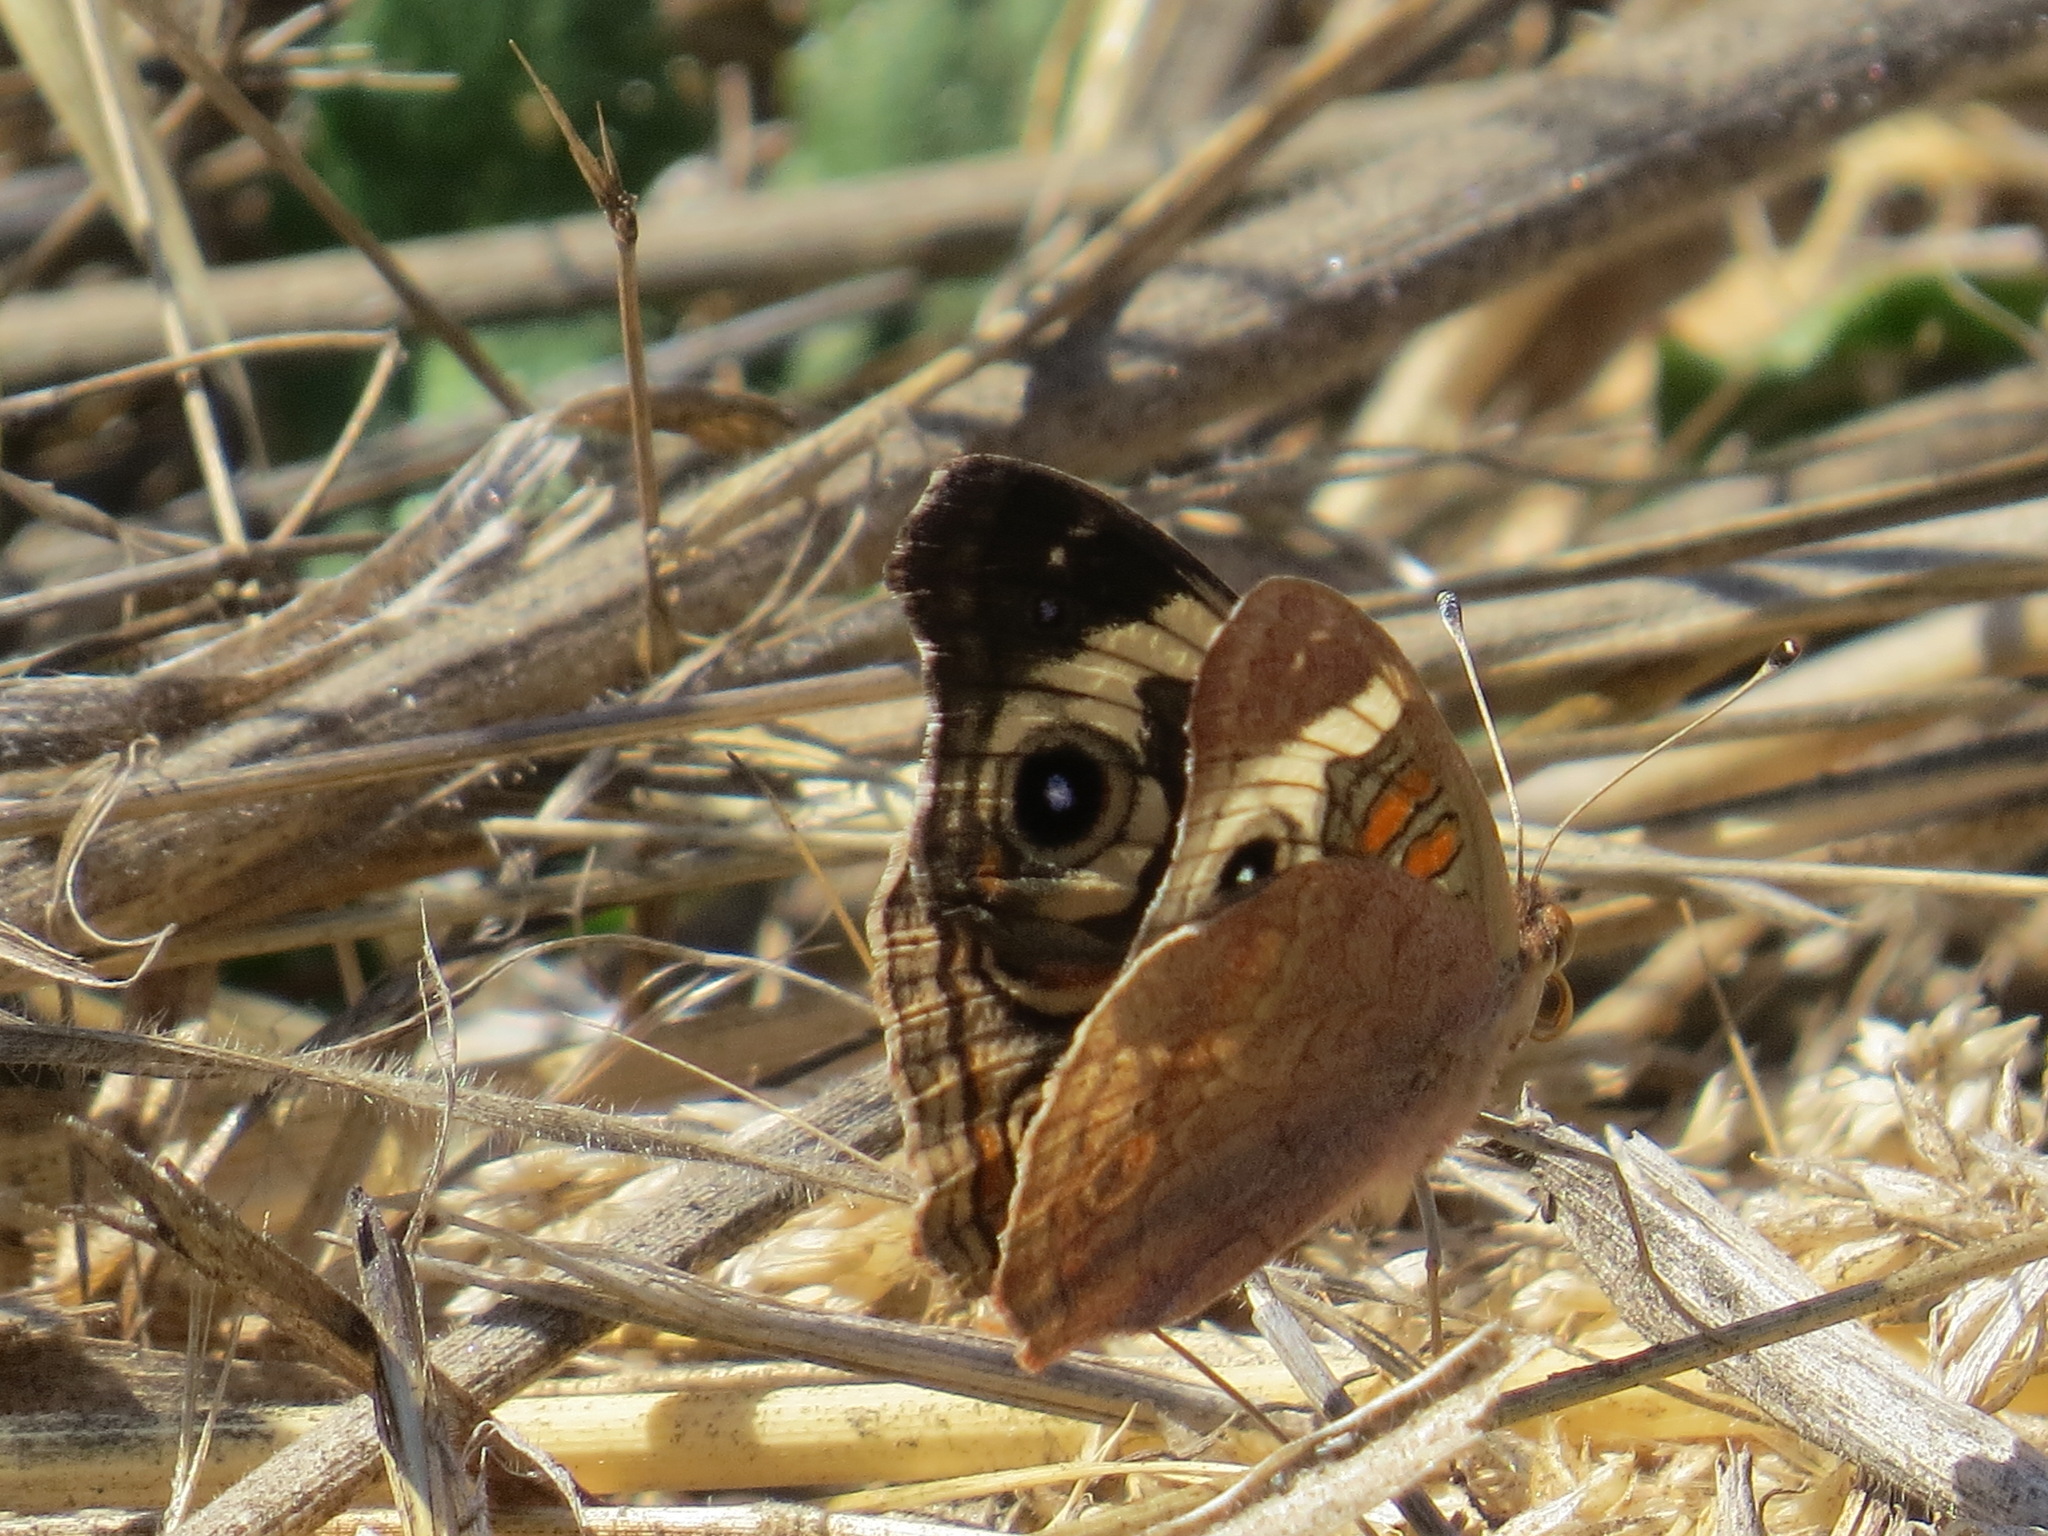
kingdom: Animalia
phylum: Arthropoda
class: Insecta
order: Lepidoptera
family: Nymphalidae
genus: Junonia
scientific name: Junonia grisea
